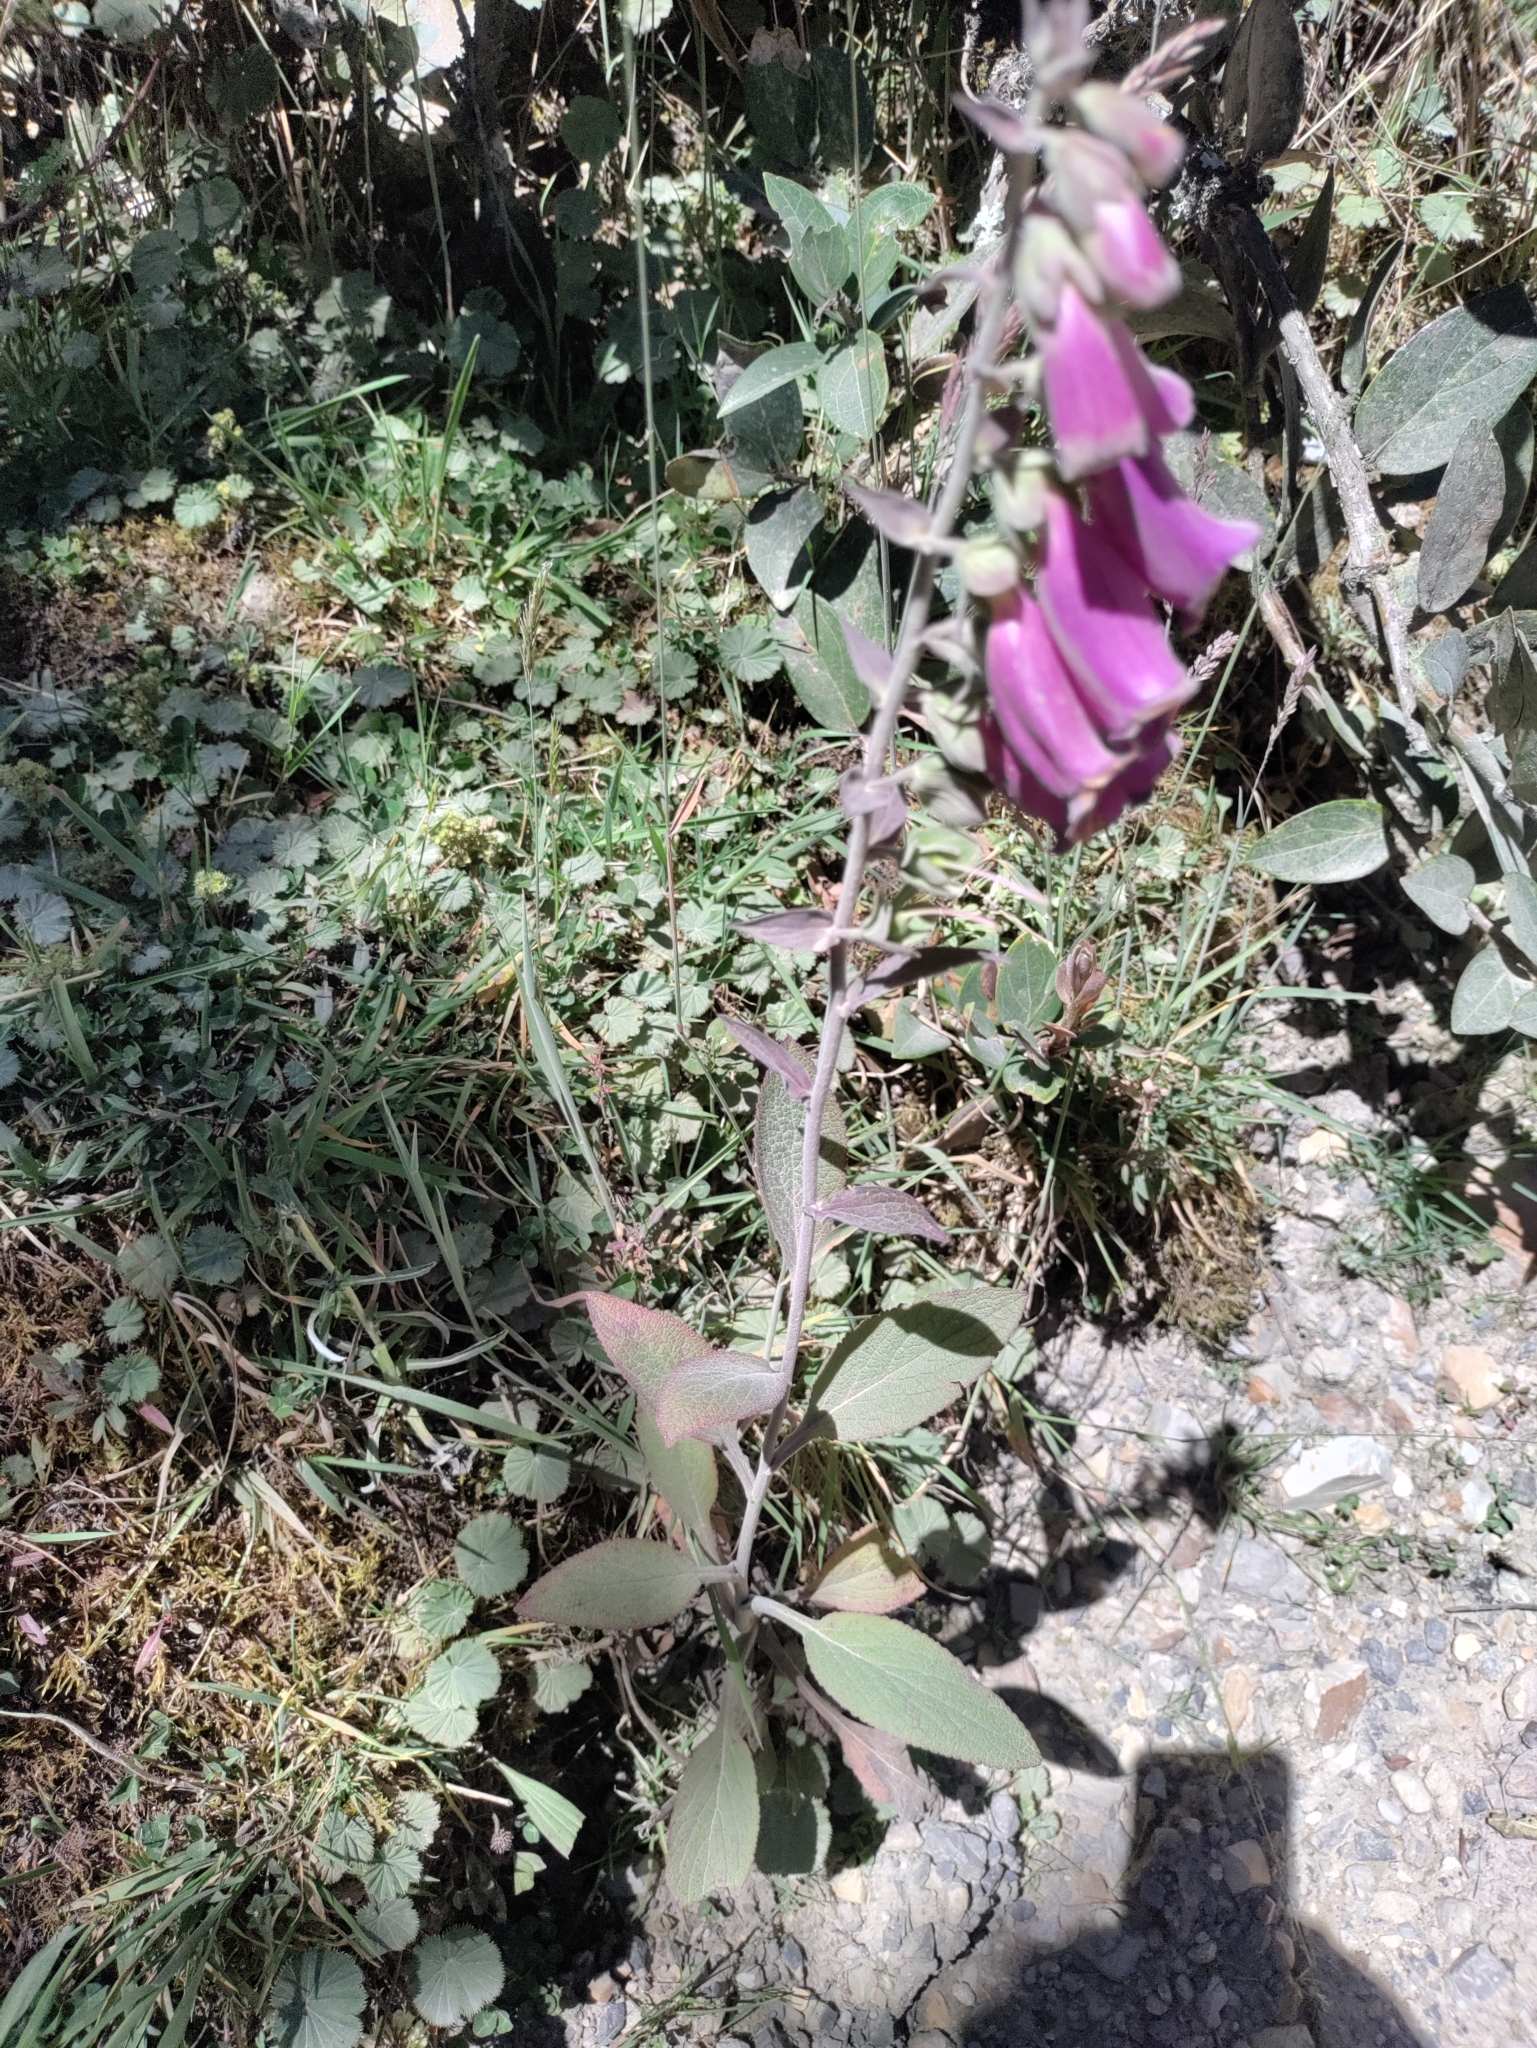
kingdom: Plantae
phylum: Tracheophyta
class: Magnoliopsida
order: Lamiales
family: Plantaginaceae
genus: Digitalis
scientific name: Digitalis purpurea
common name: Foxglove
